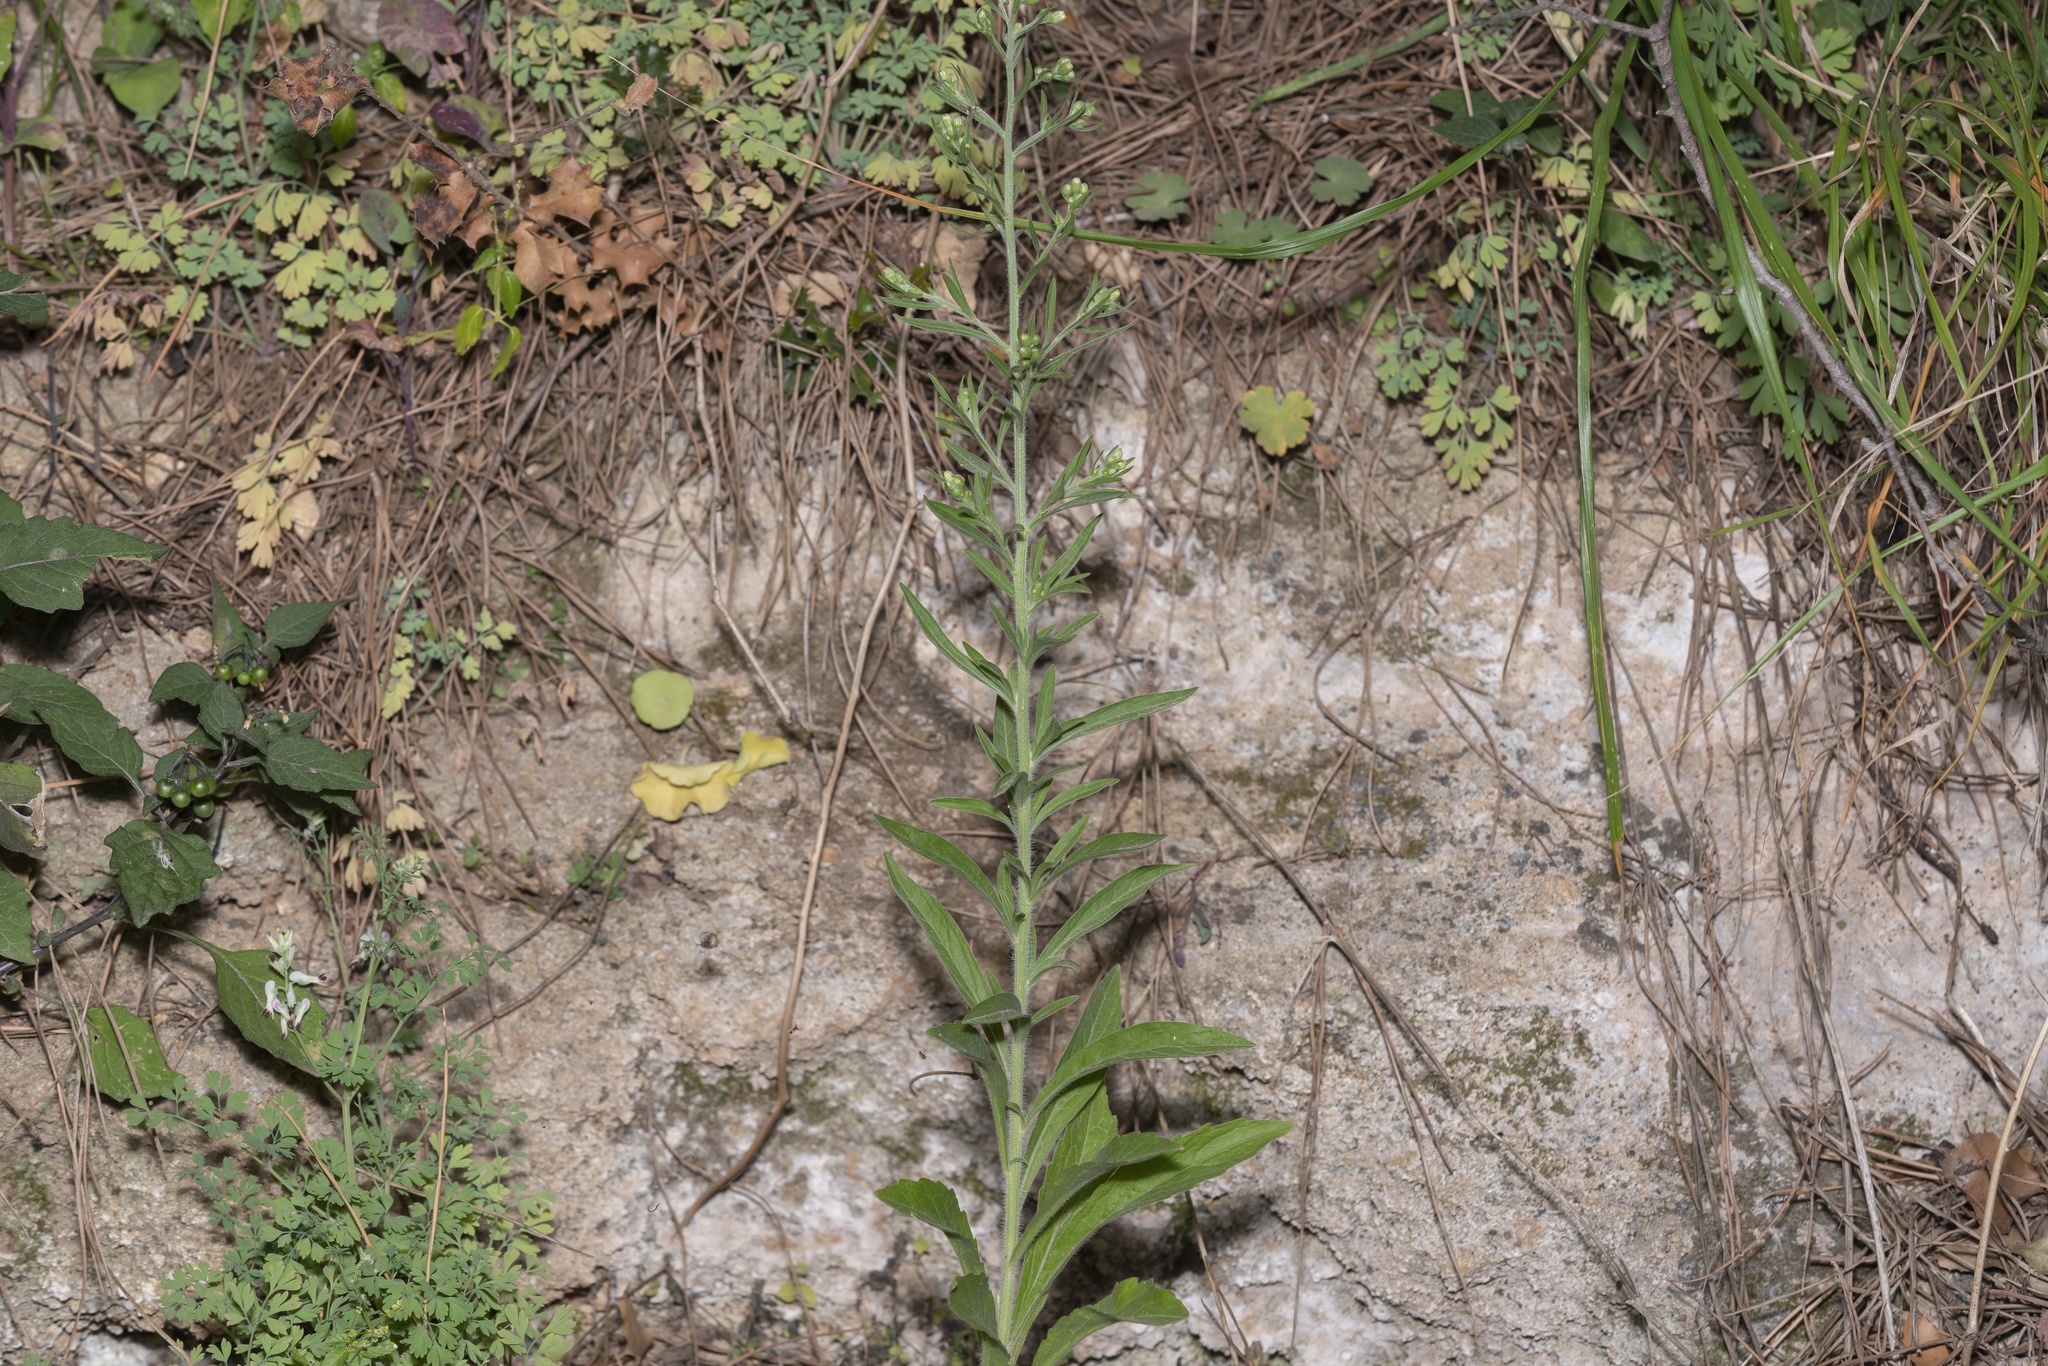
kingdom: Plantae
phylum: Tracheophyta
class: Magnoliopsida
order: Asterales
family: Asteraceae
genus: Erigeron
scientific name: Erigeron sumatrensis
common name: Daisy
